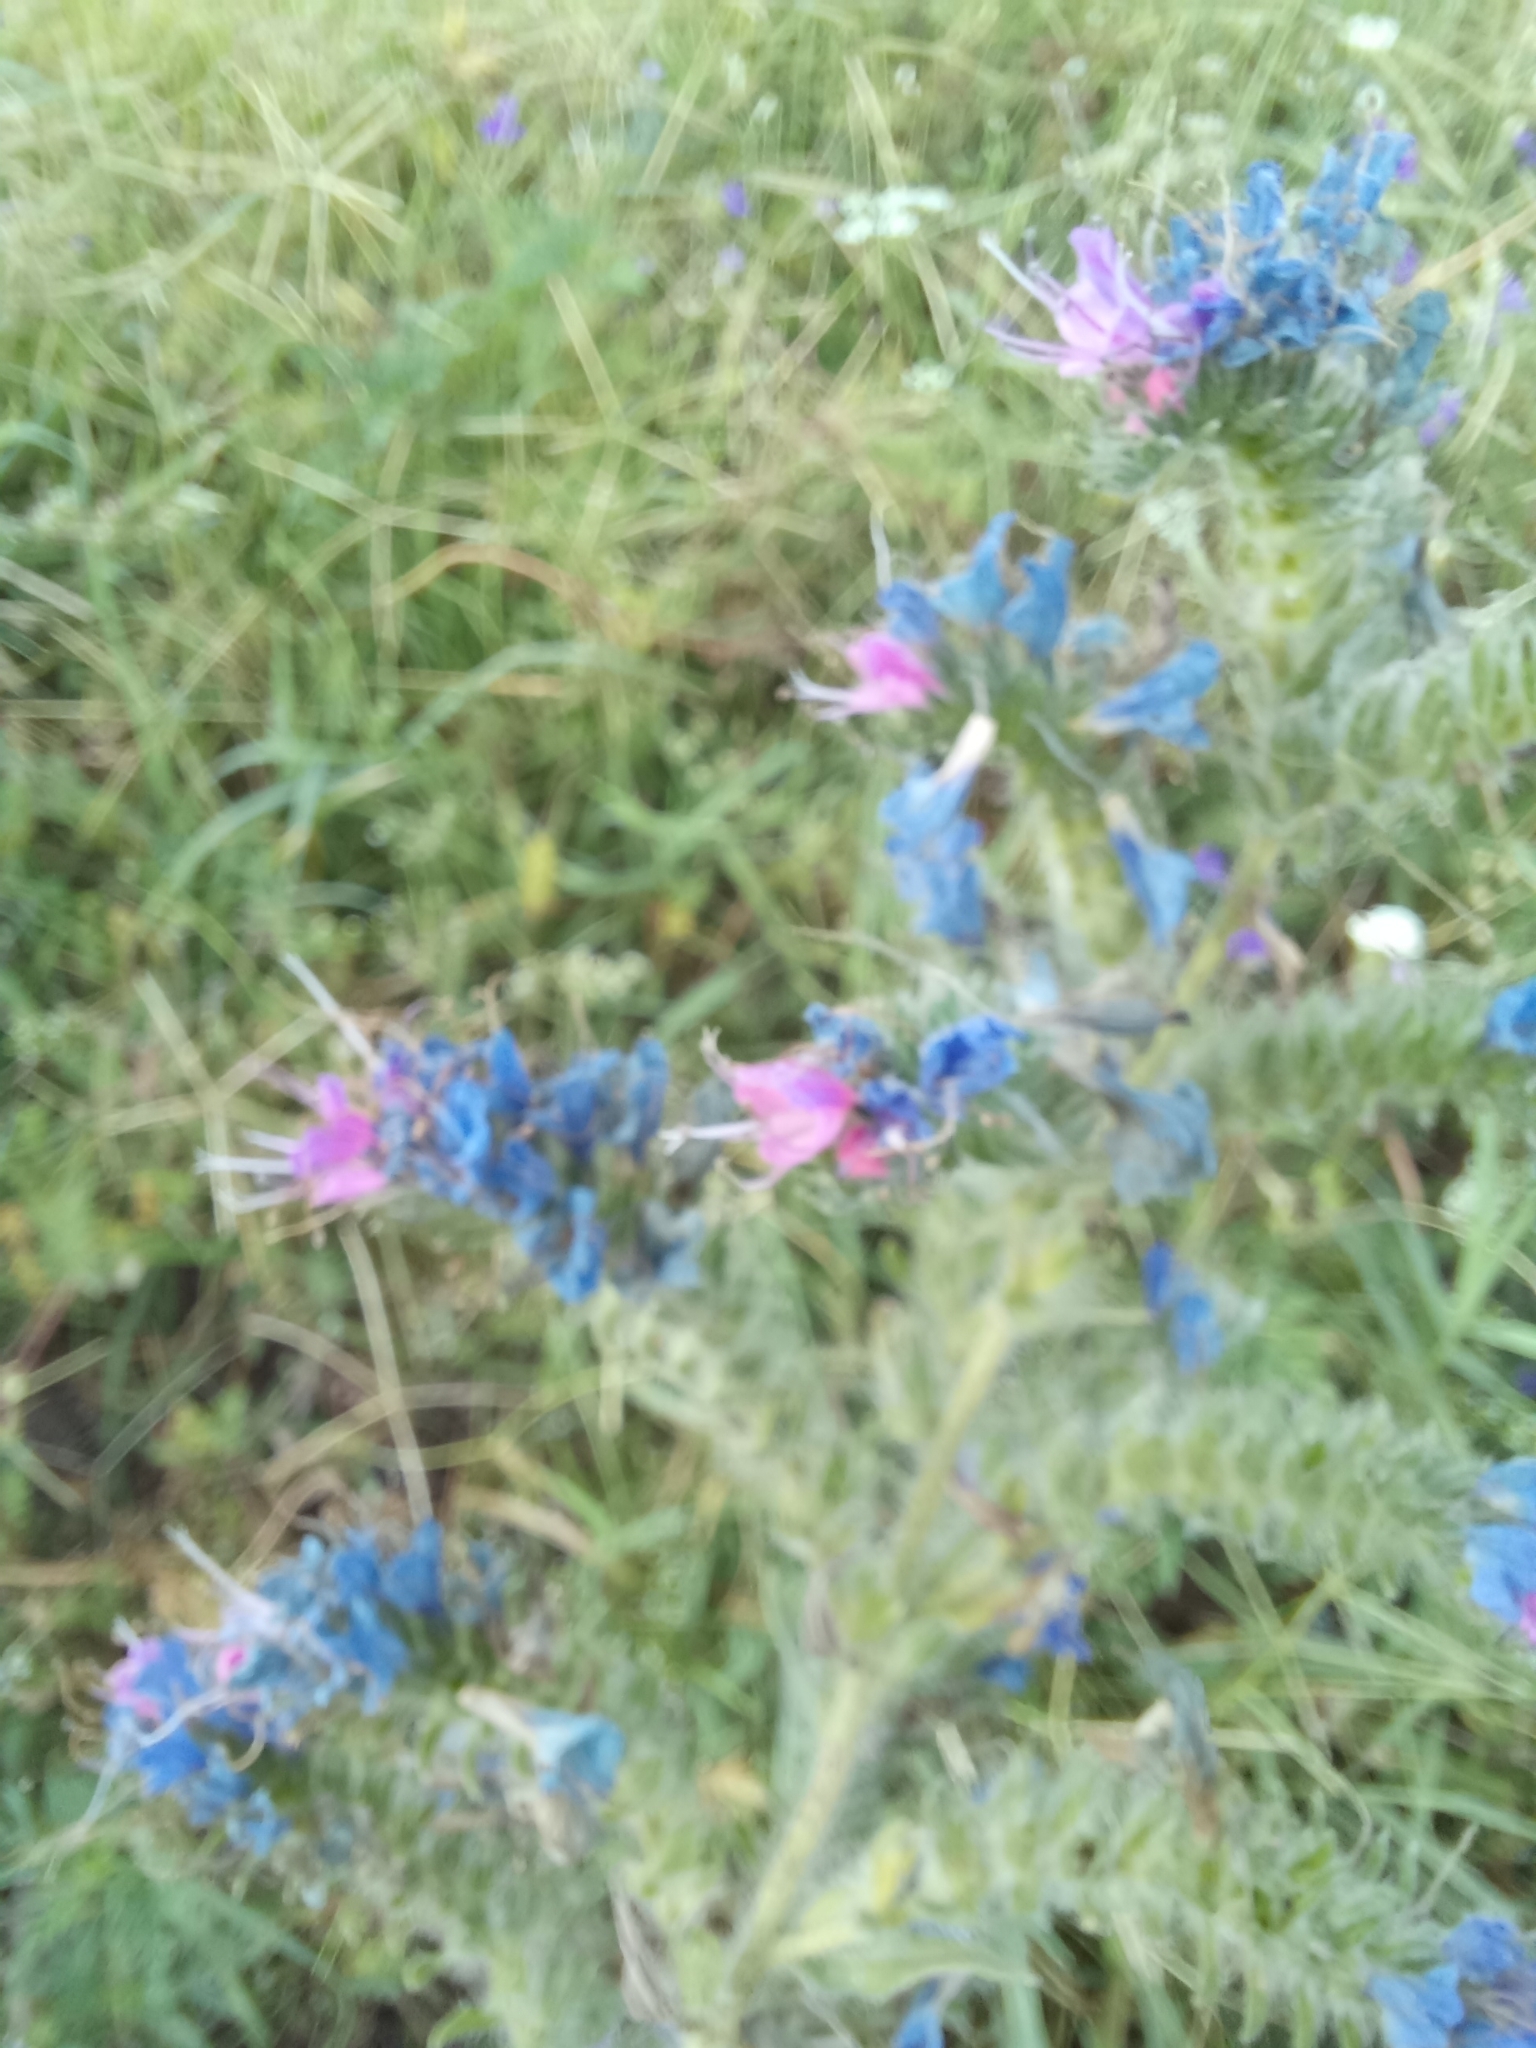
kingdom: Plantae
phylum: Tracheophyta
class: Magnoliopsida
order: Boraginales
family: Boraginaceae
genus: Echium
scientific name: Echium vulgare
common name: Common viper's bugloss
